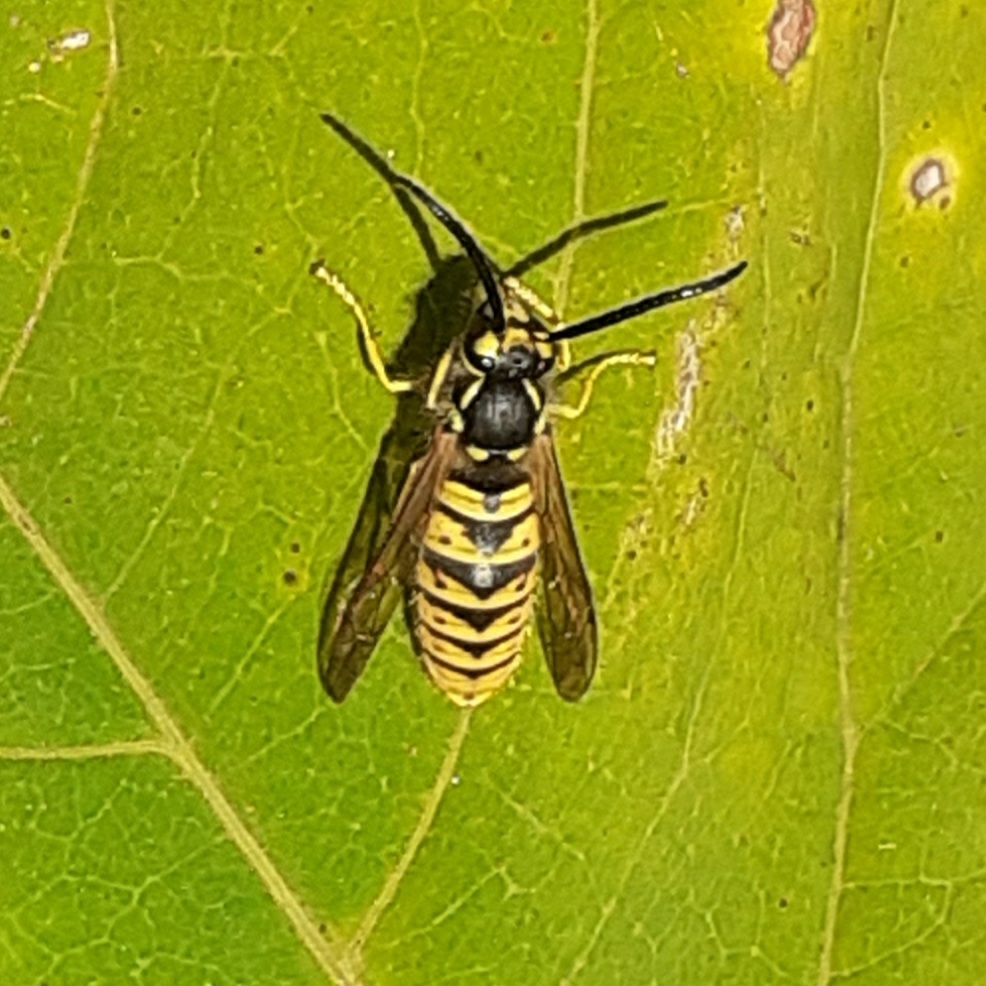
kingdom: Animalia
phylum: Arthropoda
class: Insecta
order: Hymenoptera
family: Vespidae
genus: Vespula
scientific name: Vespula germanica
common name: German wasp
